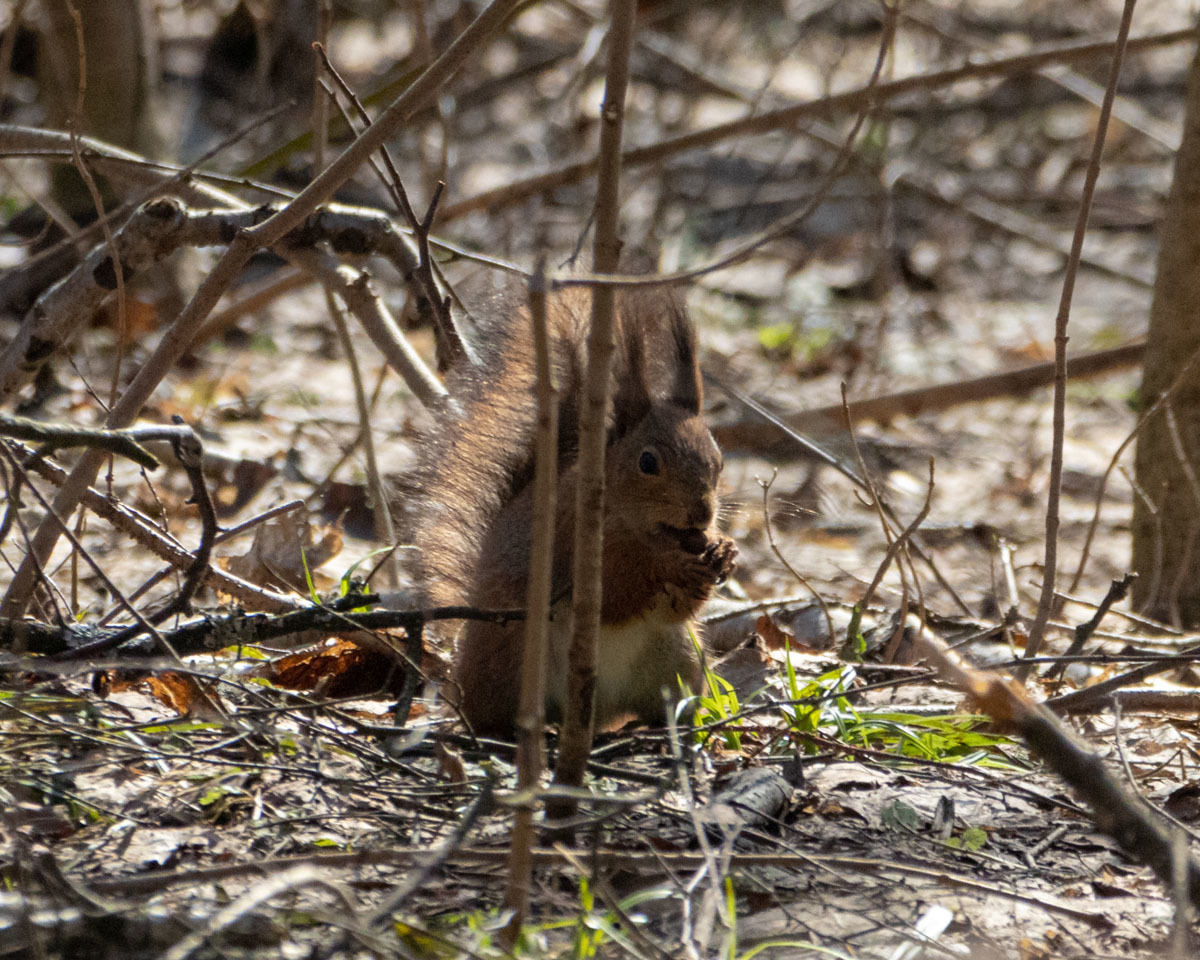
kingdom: Animalia
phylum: Chordata
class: Mammalia
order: Rodentia
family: Sciuridae
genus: Sciurus
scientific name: Sciurus vulgaris
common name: Eurasian red squirrel
